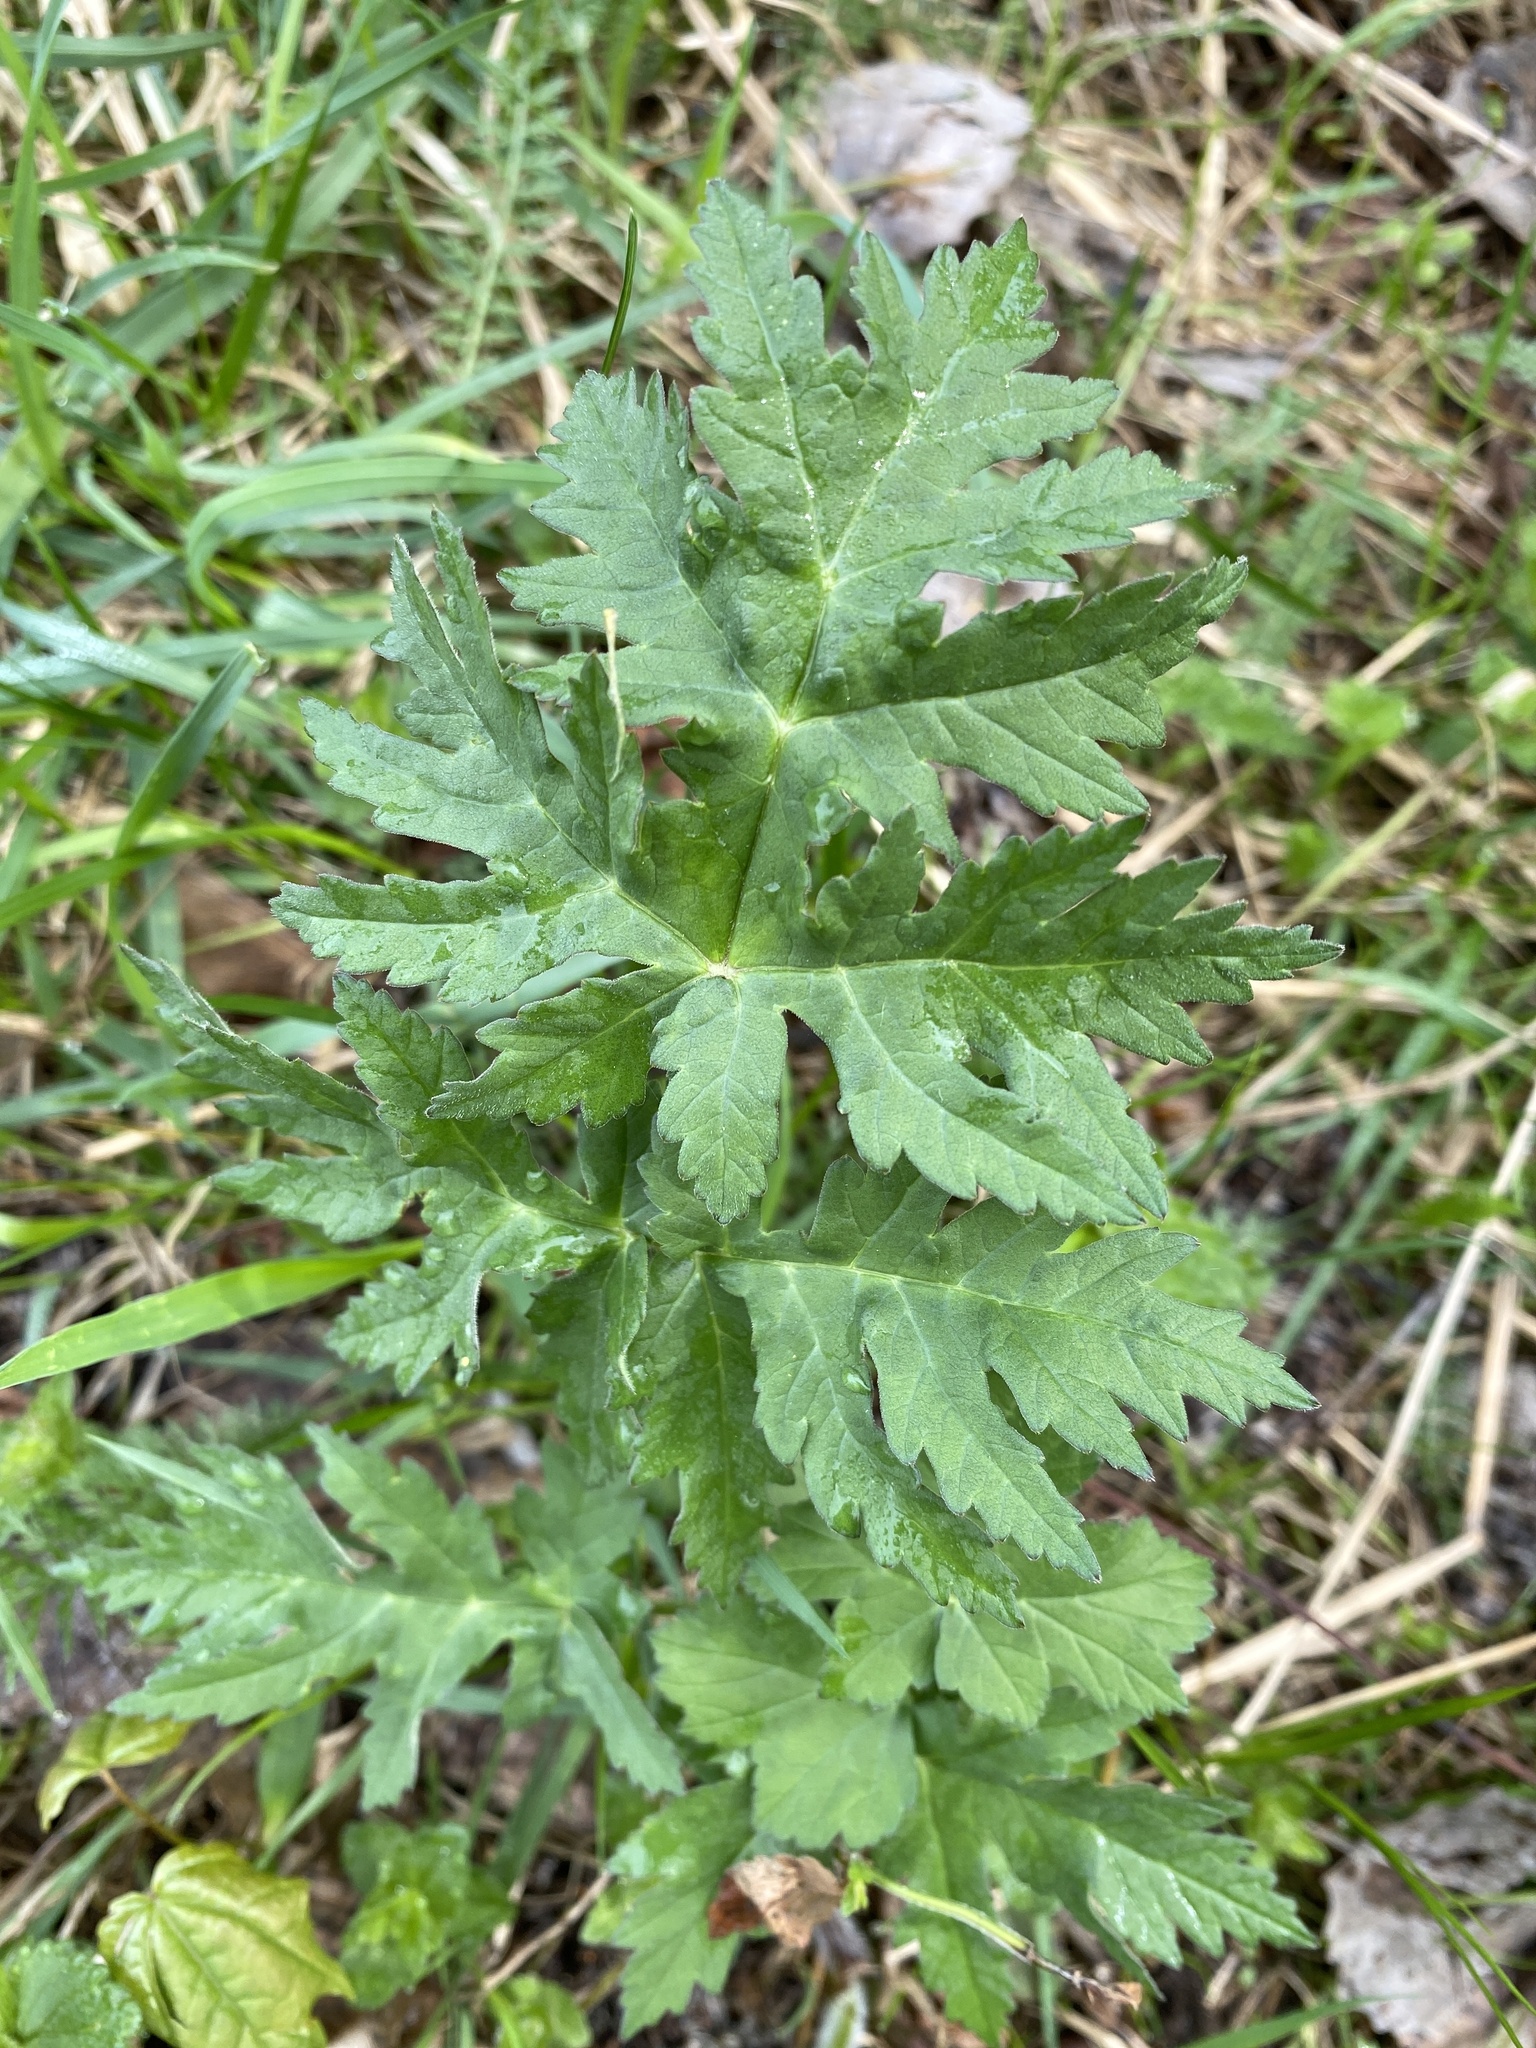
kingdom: Plantae
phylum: Tracheophyta
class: Magnoliopsida
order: Apiales
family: Apiaceae
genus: Heracleum
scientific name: Heracleum sphondylium
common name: Hogweed
